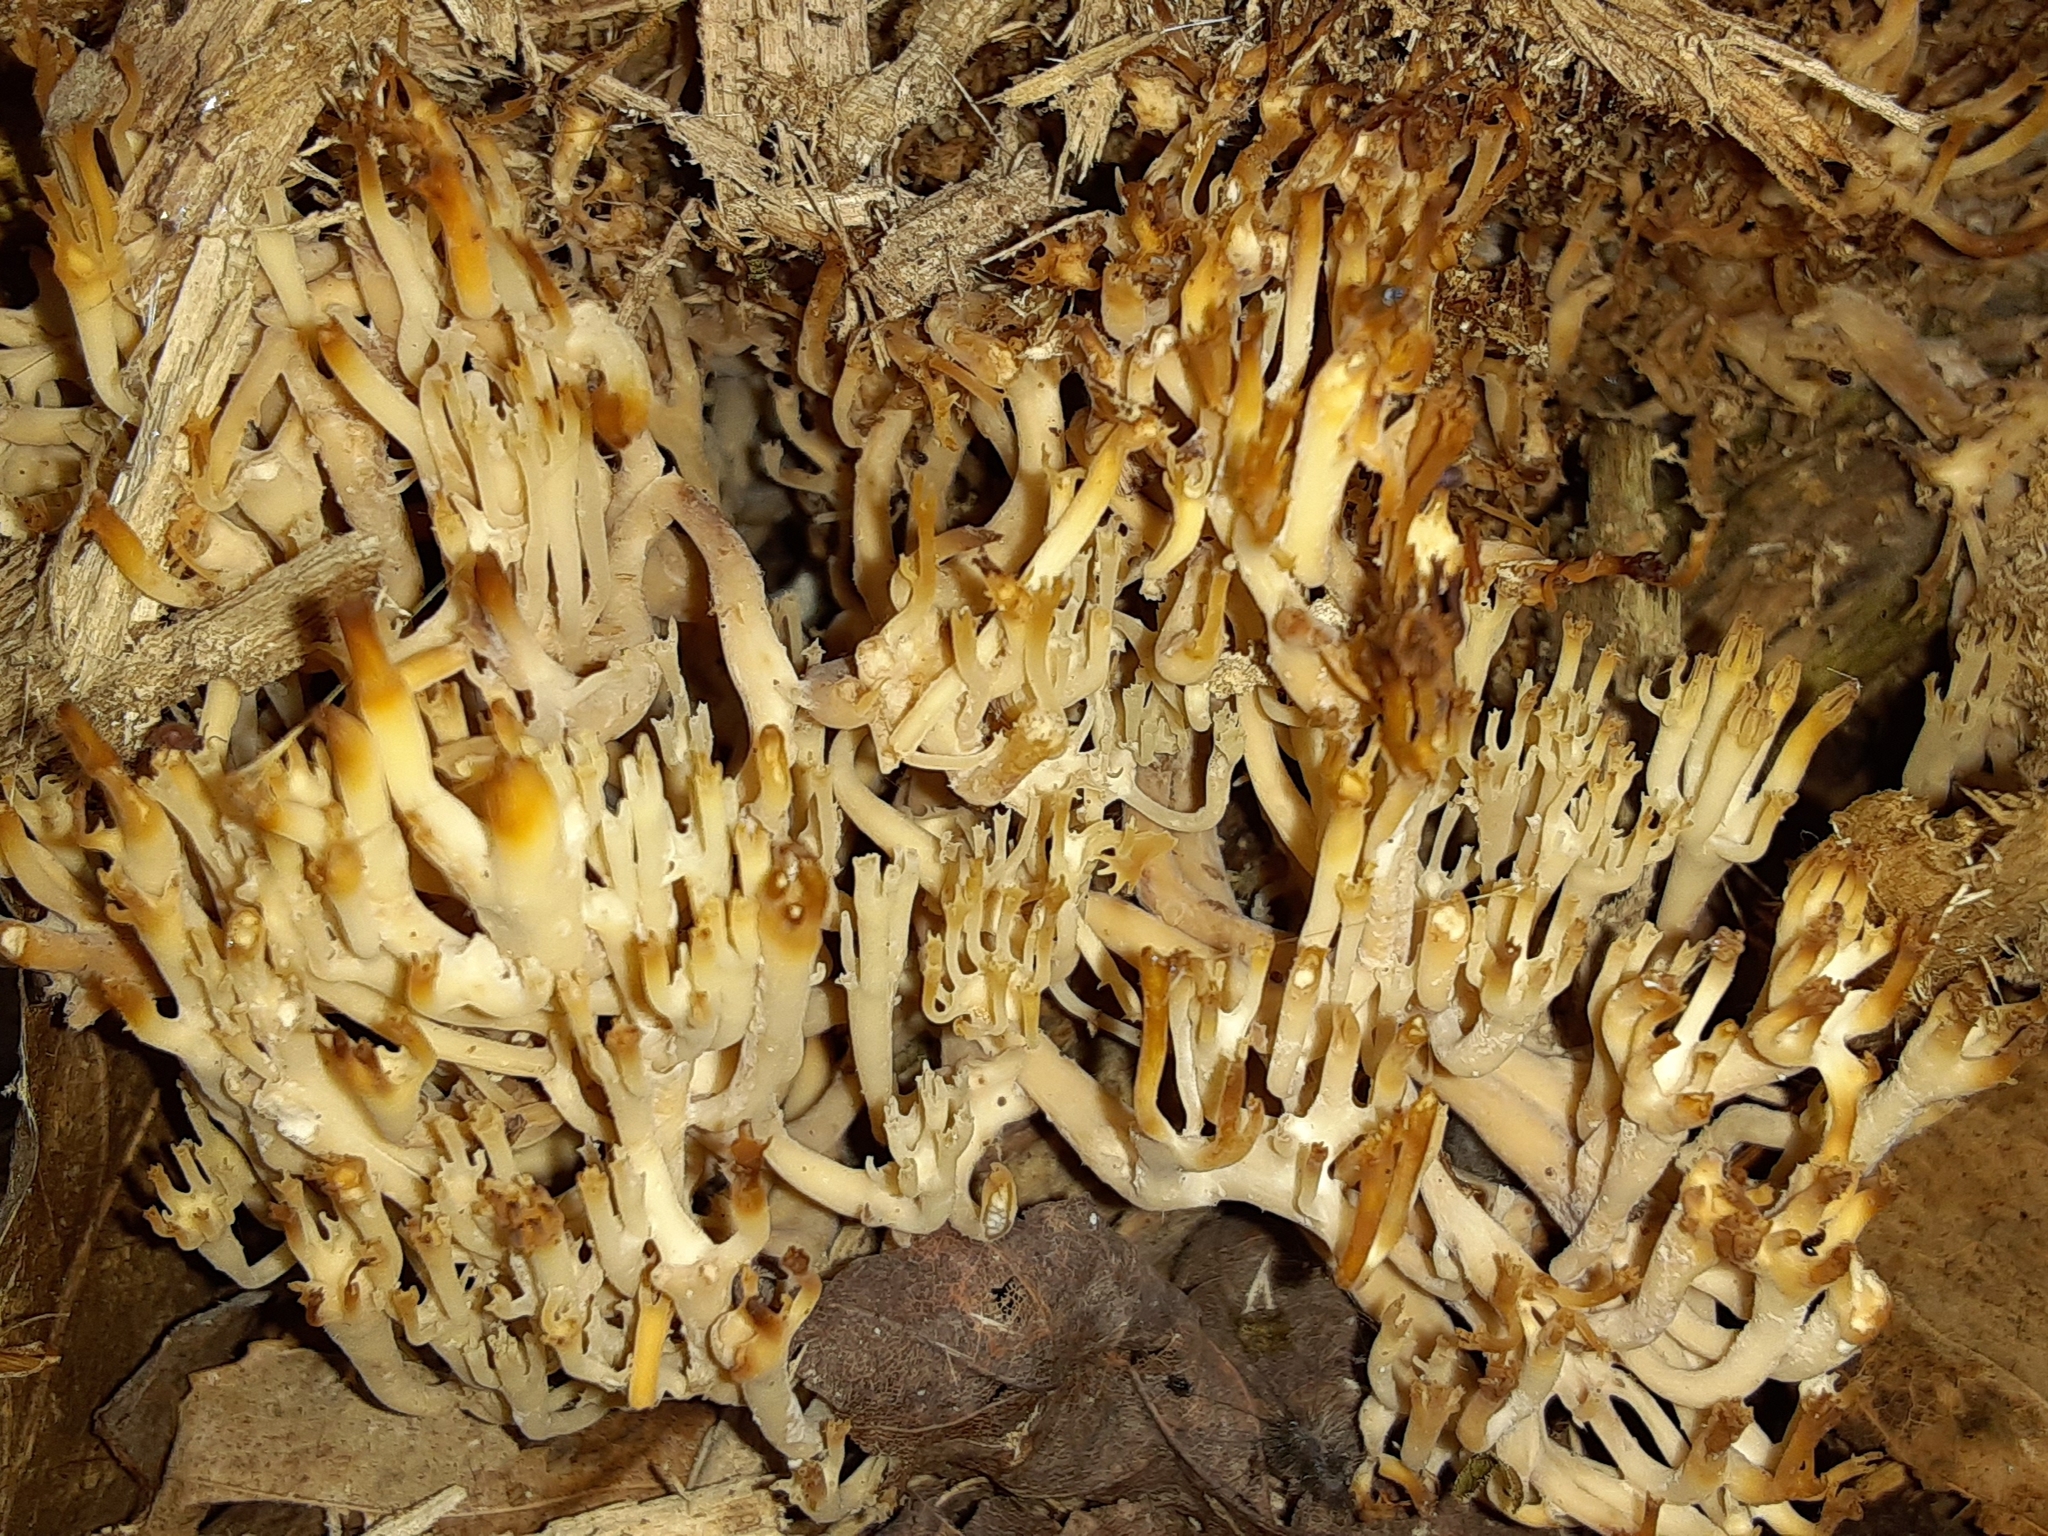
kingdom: Fungi
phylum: Basidiomycota
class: Agaricomycetes
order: Russulales
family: Auriscalpiaceae
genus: Artomyces
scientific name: Artomyces pyxidatus
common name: Crown-tipped coral fungus
